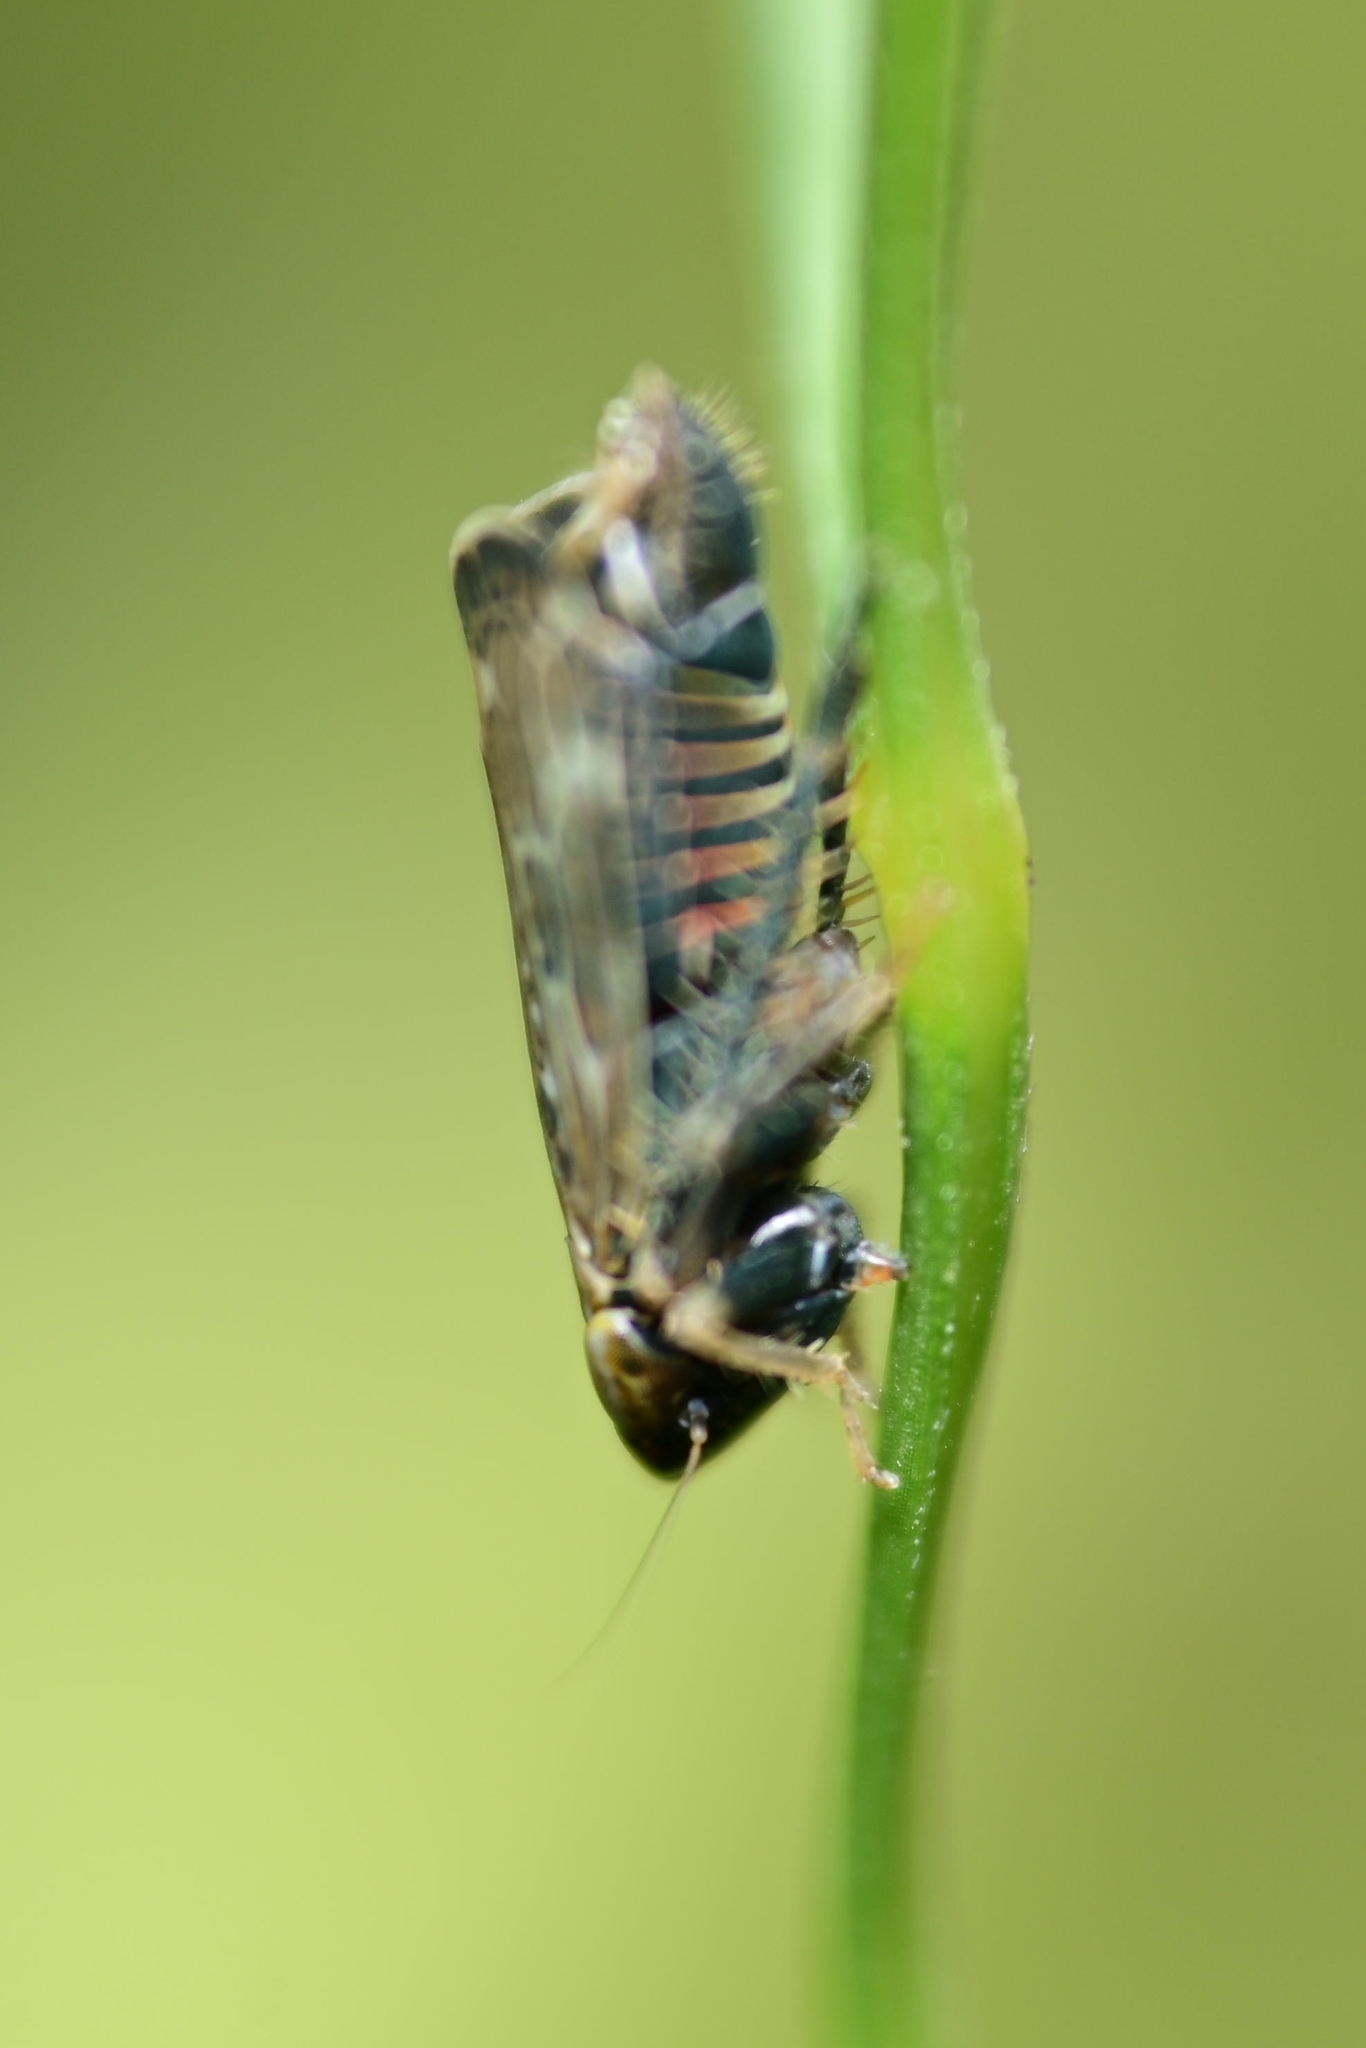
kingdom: Animalia
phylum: Arthropoda
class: Insecta
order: Hemiptera
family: Cicadellidae
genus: Errastunus
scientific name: Errastunus ocellaris
